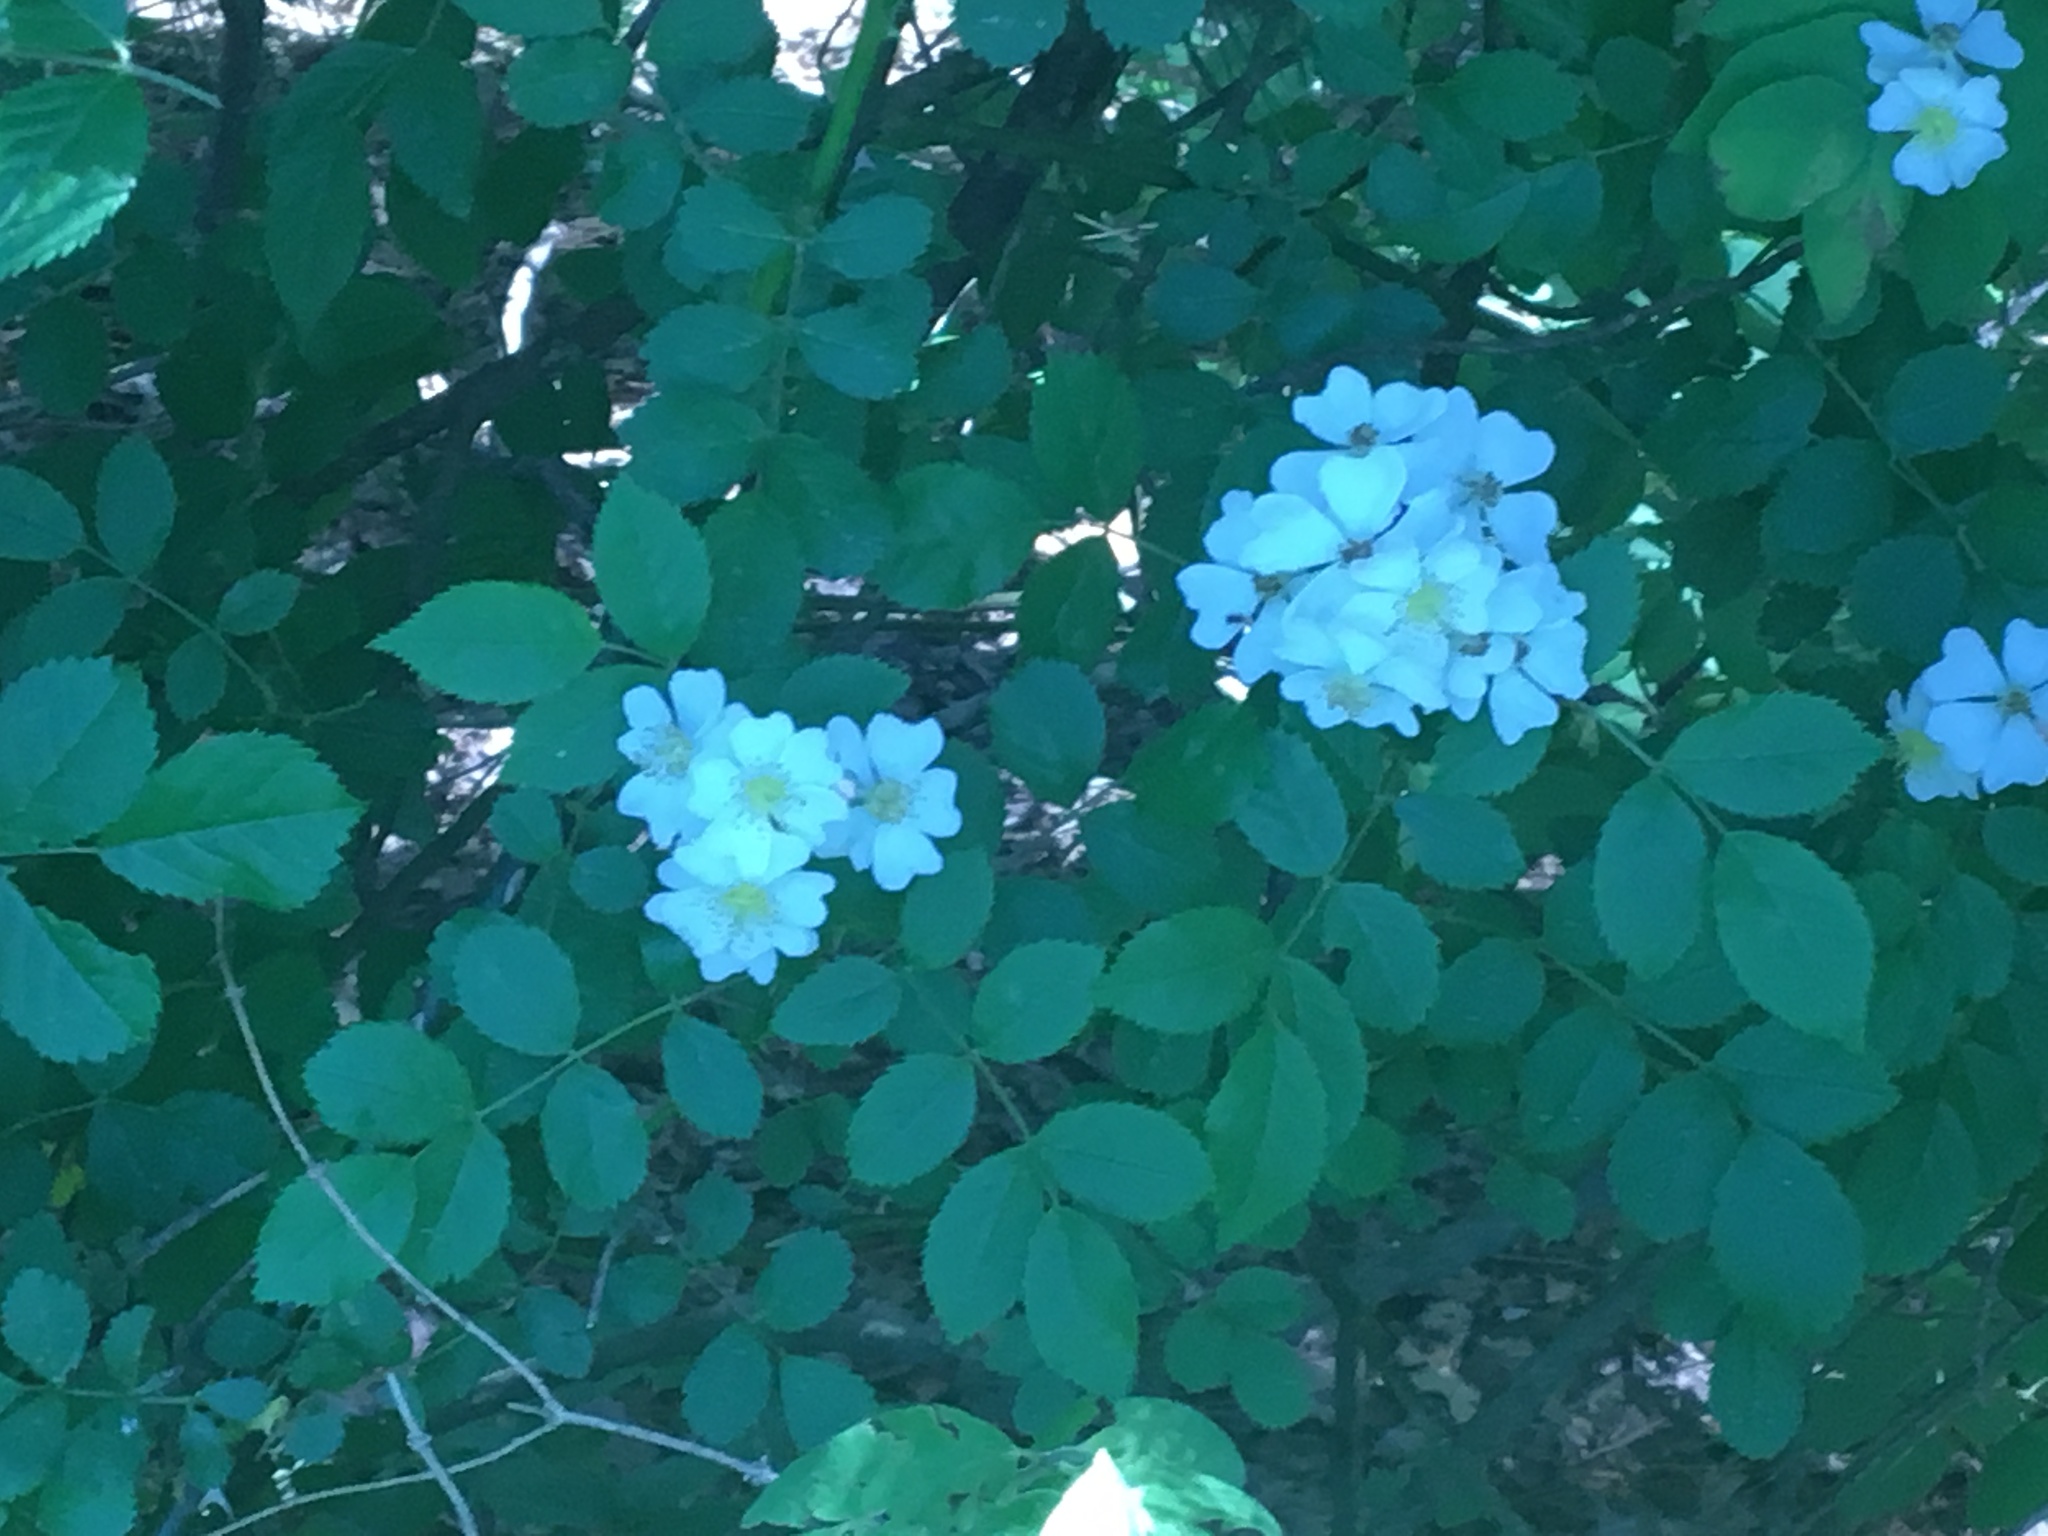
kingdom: Plantae
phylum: Tracheophyta
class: Magnoliopsida
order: Rosales
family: Rosaceae
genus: Rosa
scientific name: Rosa multiflora
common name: Multiflora rose
